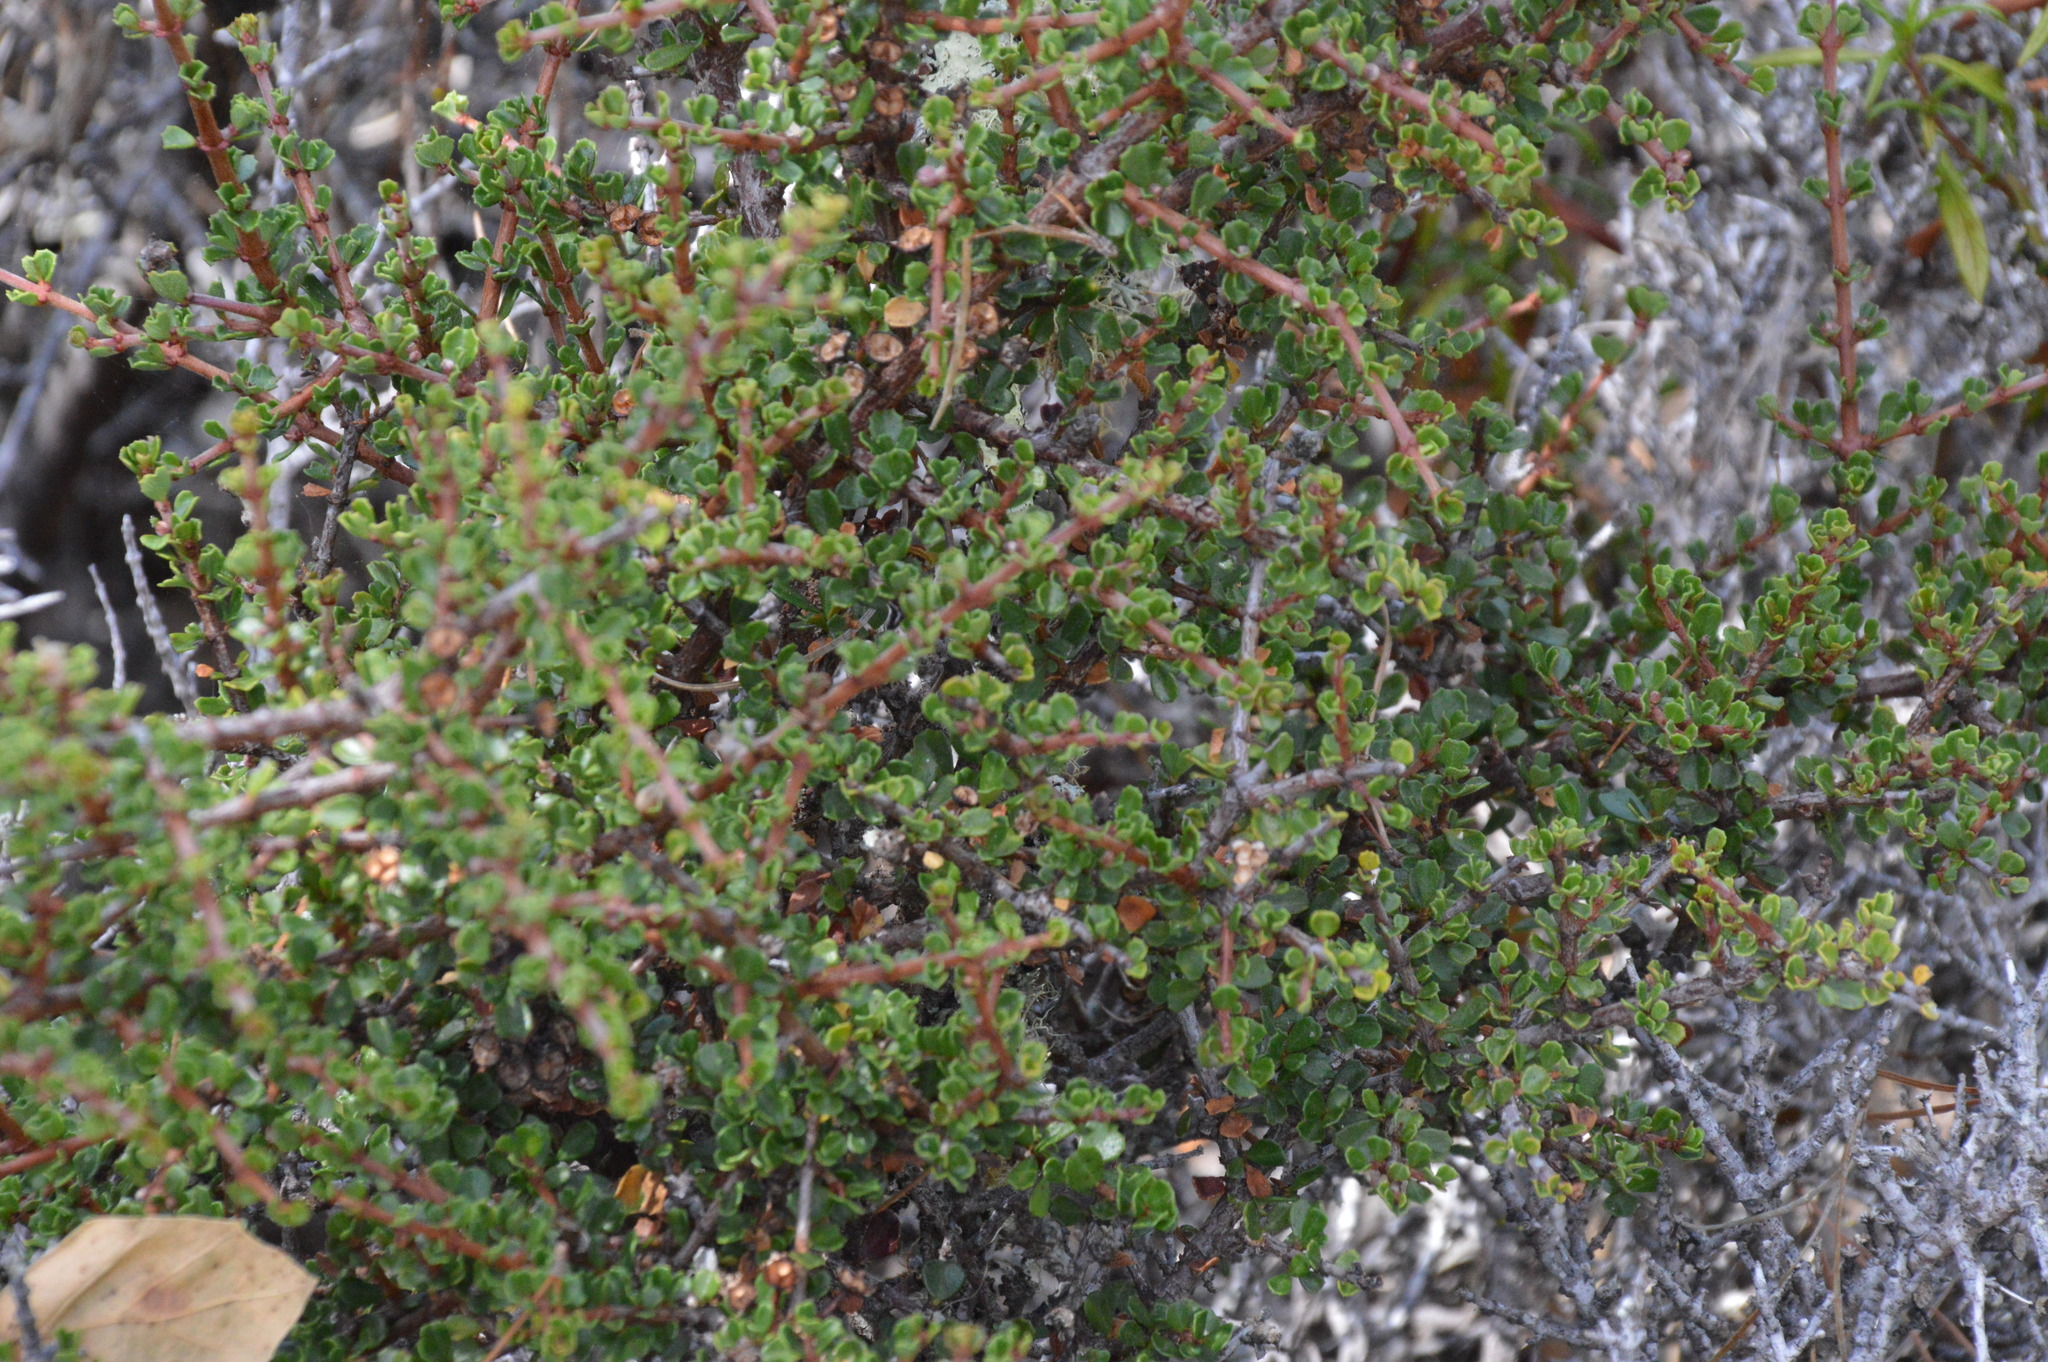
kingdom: Plantae
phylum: Tracheophyta
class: Magnoliopsida
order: Rosales
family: Rhamnaceae
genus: Ceanothus
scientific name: Ceanothus cuneatus
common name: Cuneate ceanothus
